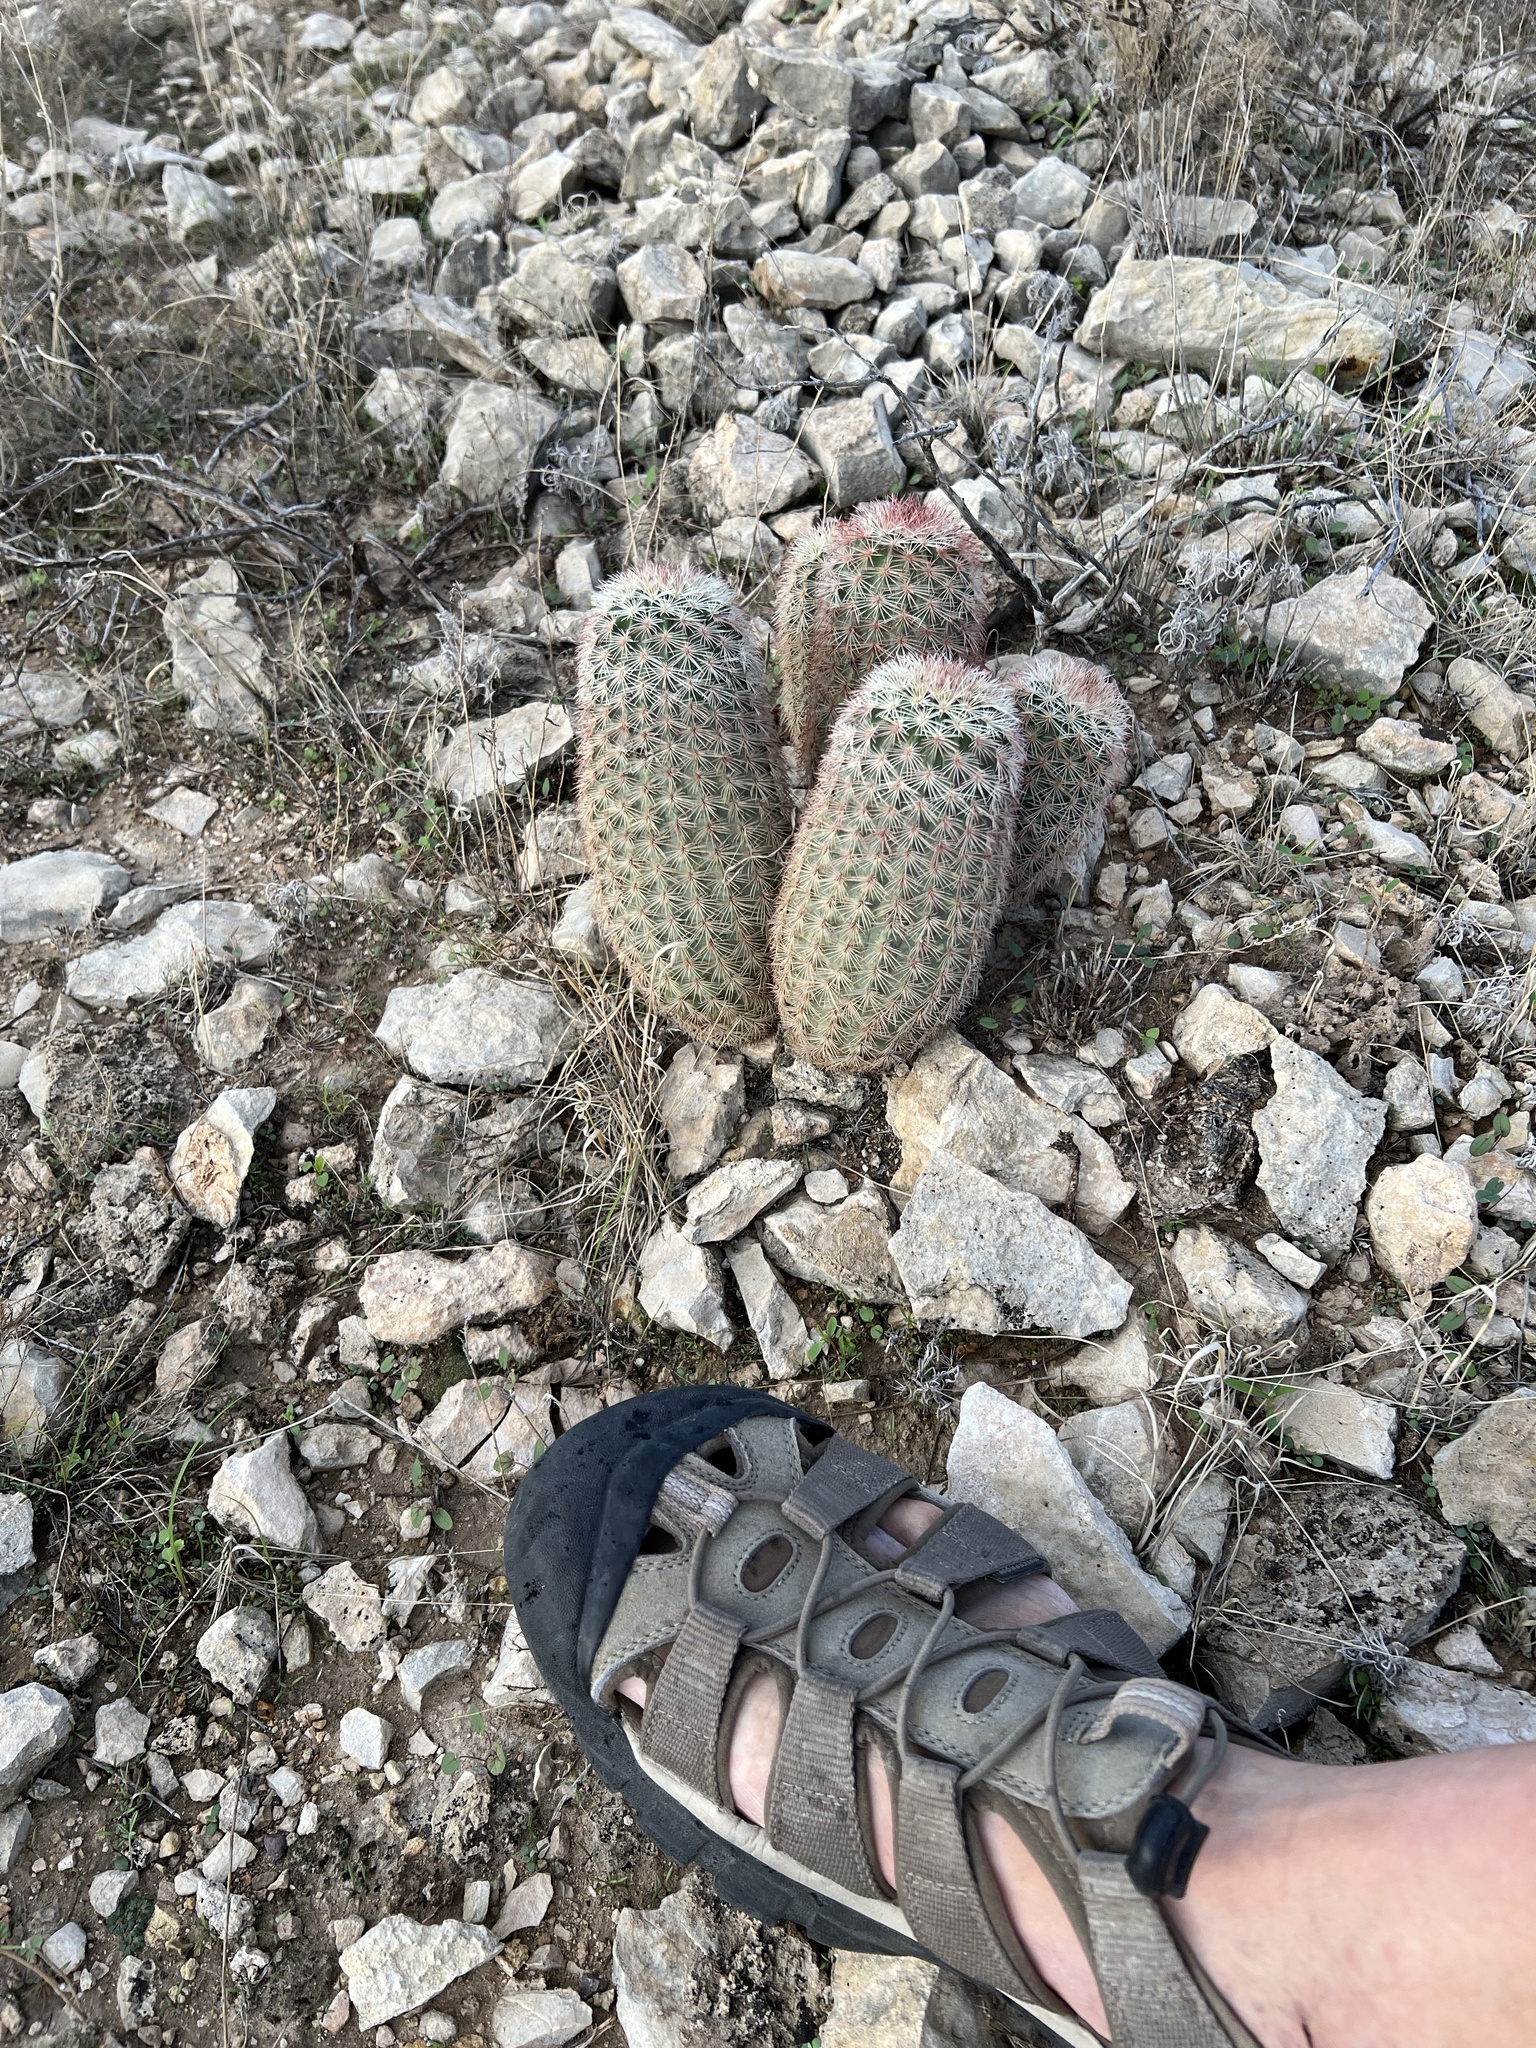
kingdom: Plantae
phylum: Tracheophyta
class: Magnoliopsida
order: Caryophyllales
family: Cactaceae
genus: Echinocereus
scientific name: Echinocereus dasyacanthus
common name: Spiny hedgehog cactus
